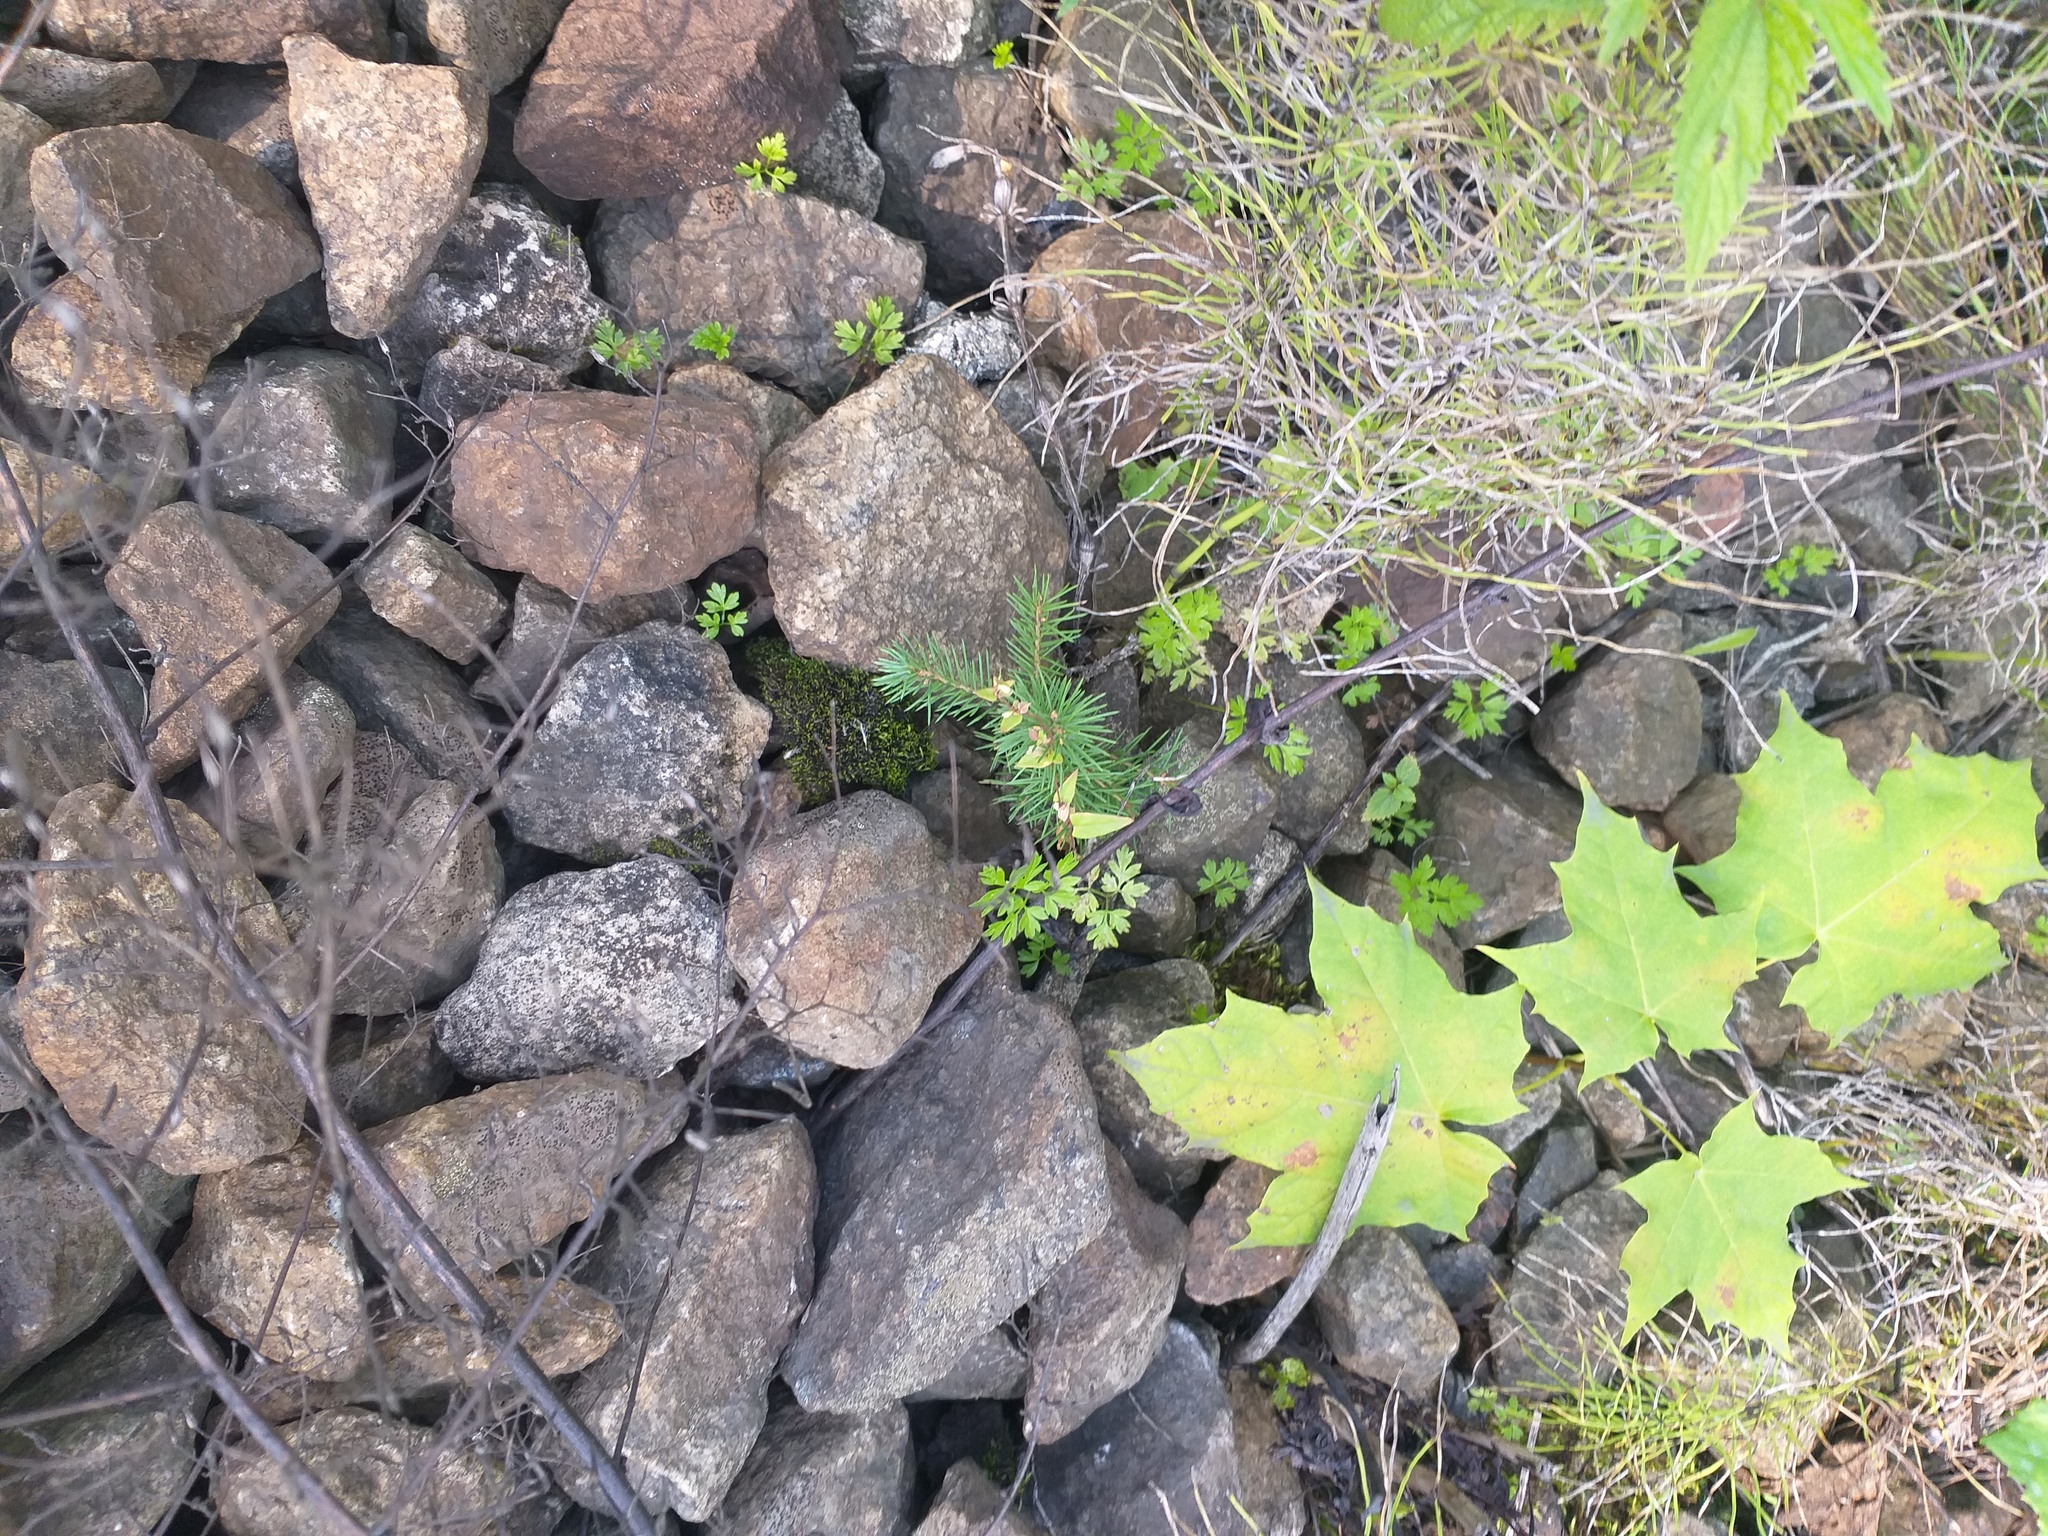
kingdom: Plantae
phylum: Tracheophyta
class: Pinopsida
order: Pinales
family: Pinaceae
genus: Picea
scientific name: Picea abies
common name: Norway spruce
